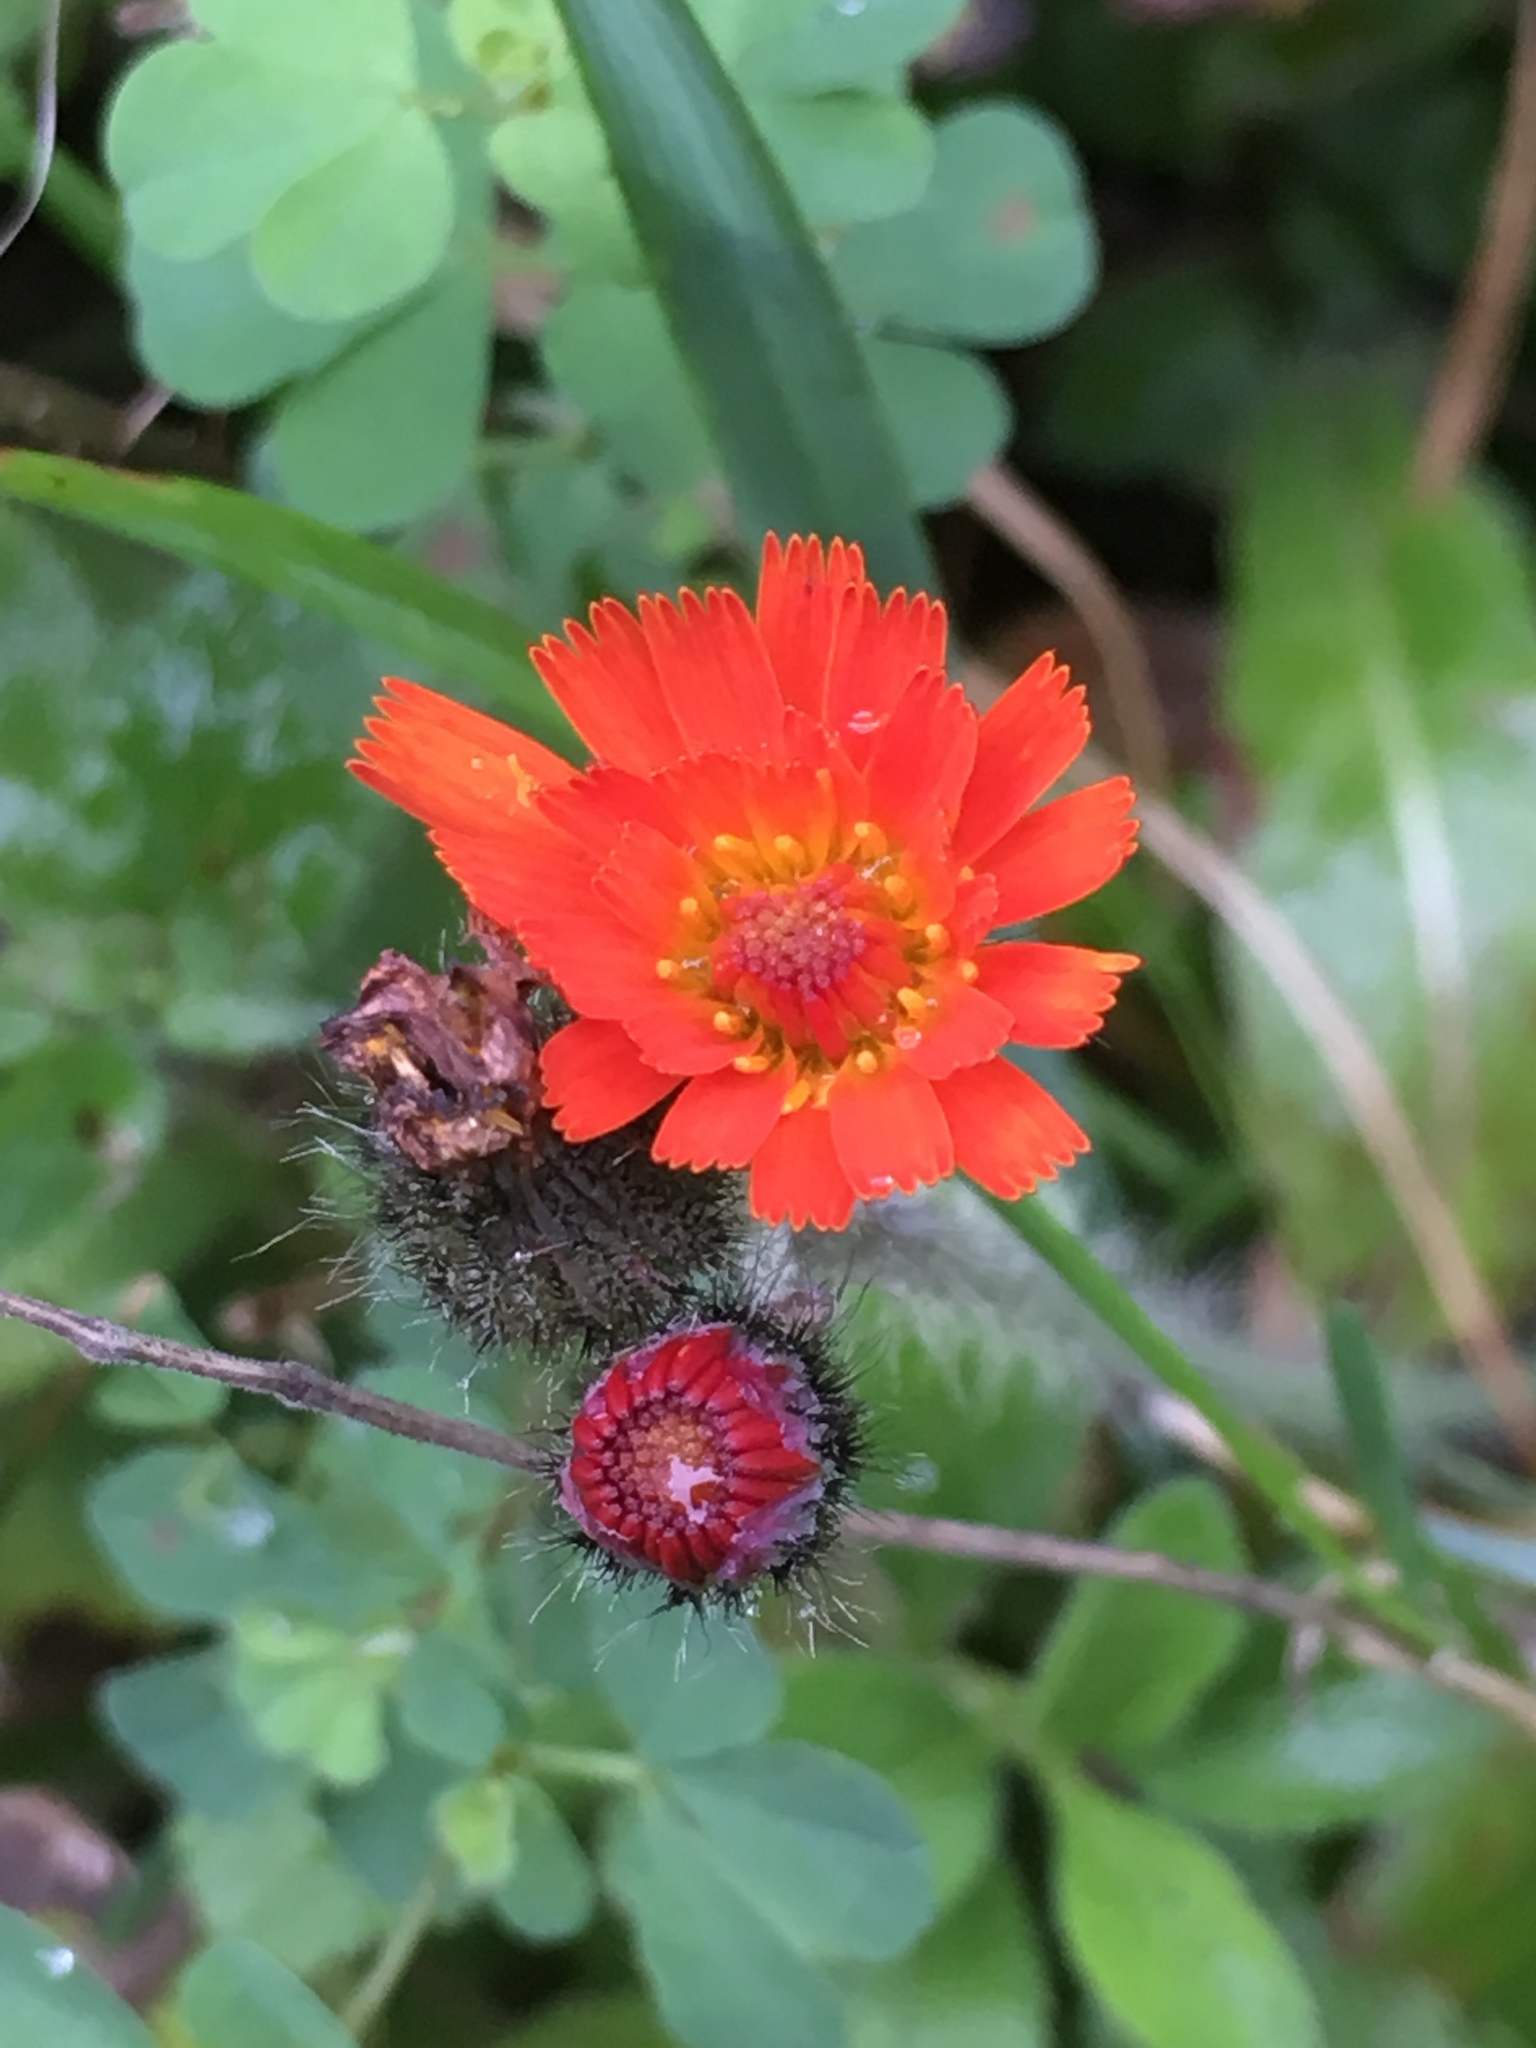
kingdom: Plantae
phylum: Tracheophyta
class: Magnoliopsida
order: Asterales
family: Asteraceae
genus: Pilosella
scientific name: Pilosella aurantiaca
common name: Fox-and-cubs
